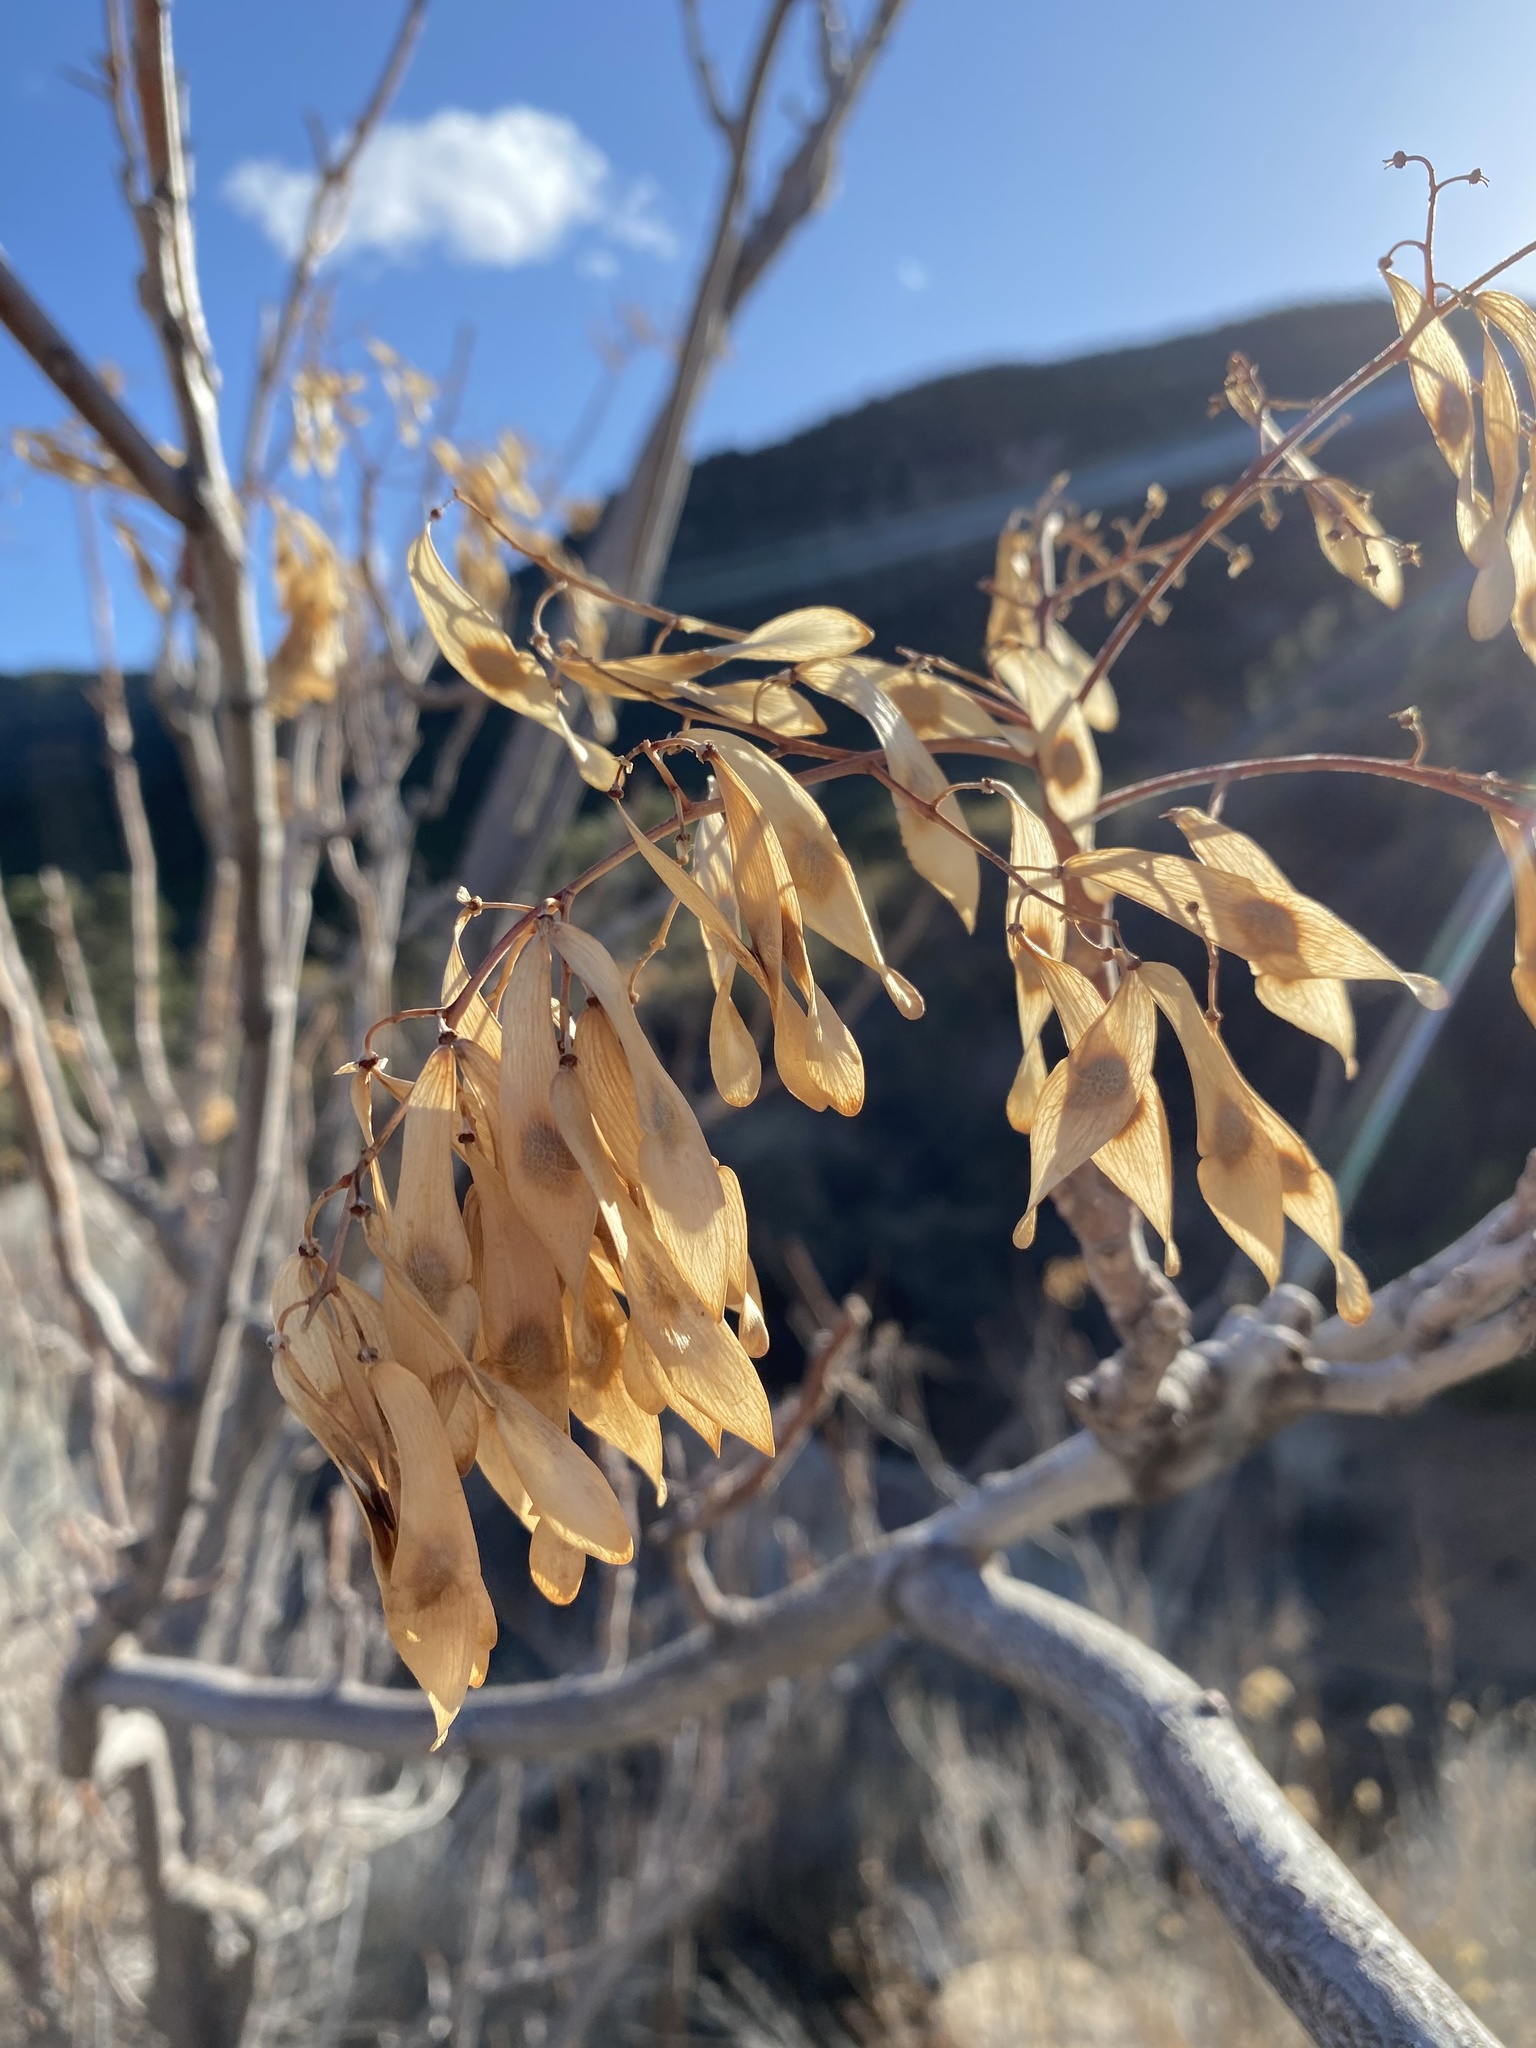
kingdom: Plantae
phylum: Tracheophyta
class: Magnoliopsida
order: Sapindales
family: Simaroubaceae
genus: Ailanthus
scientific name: Ailanthus altissima
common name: Tree-of-heaven
